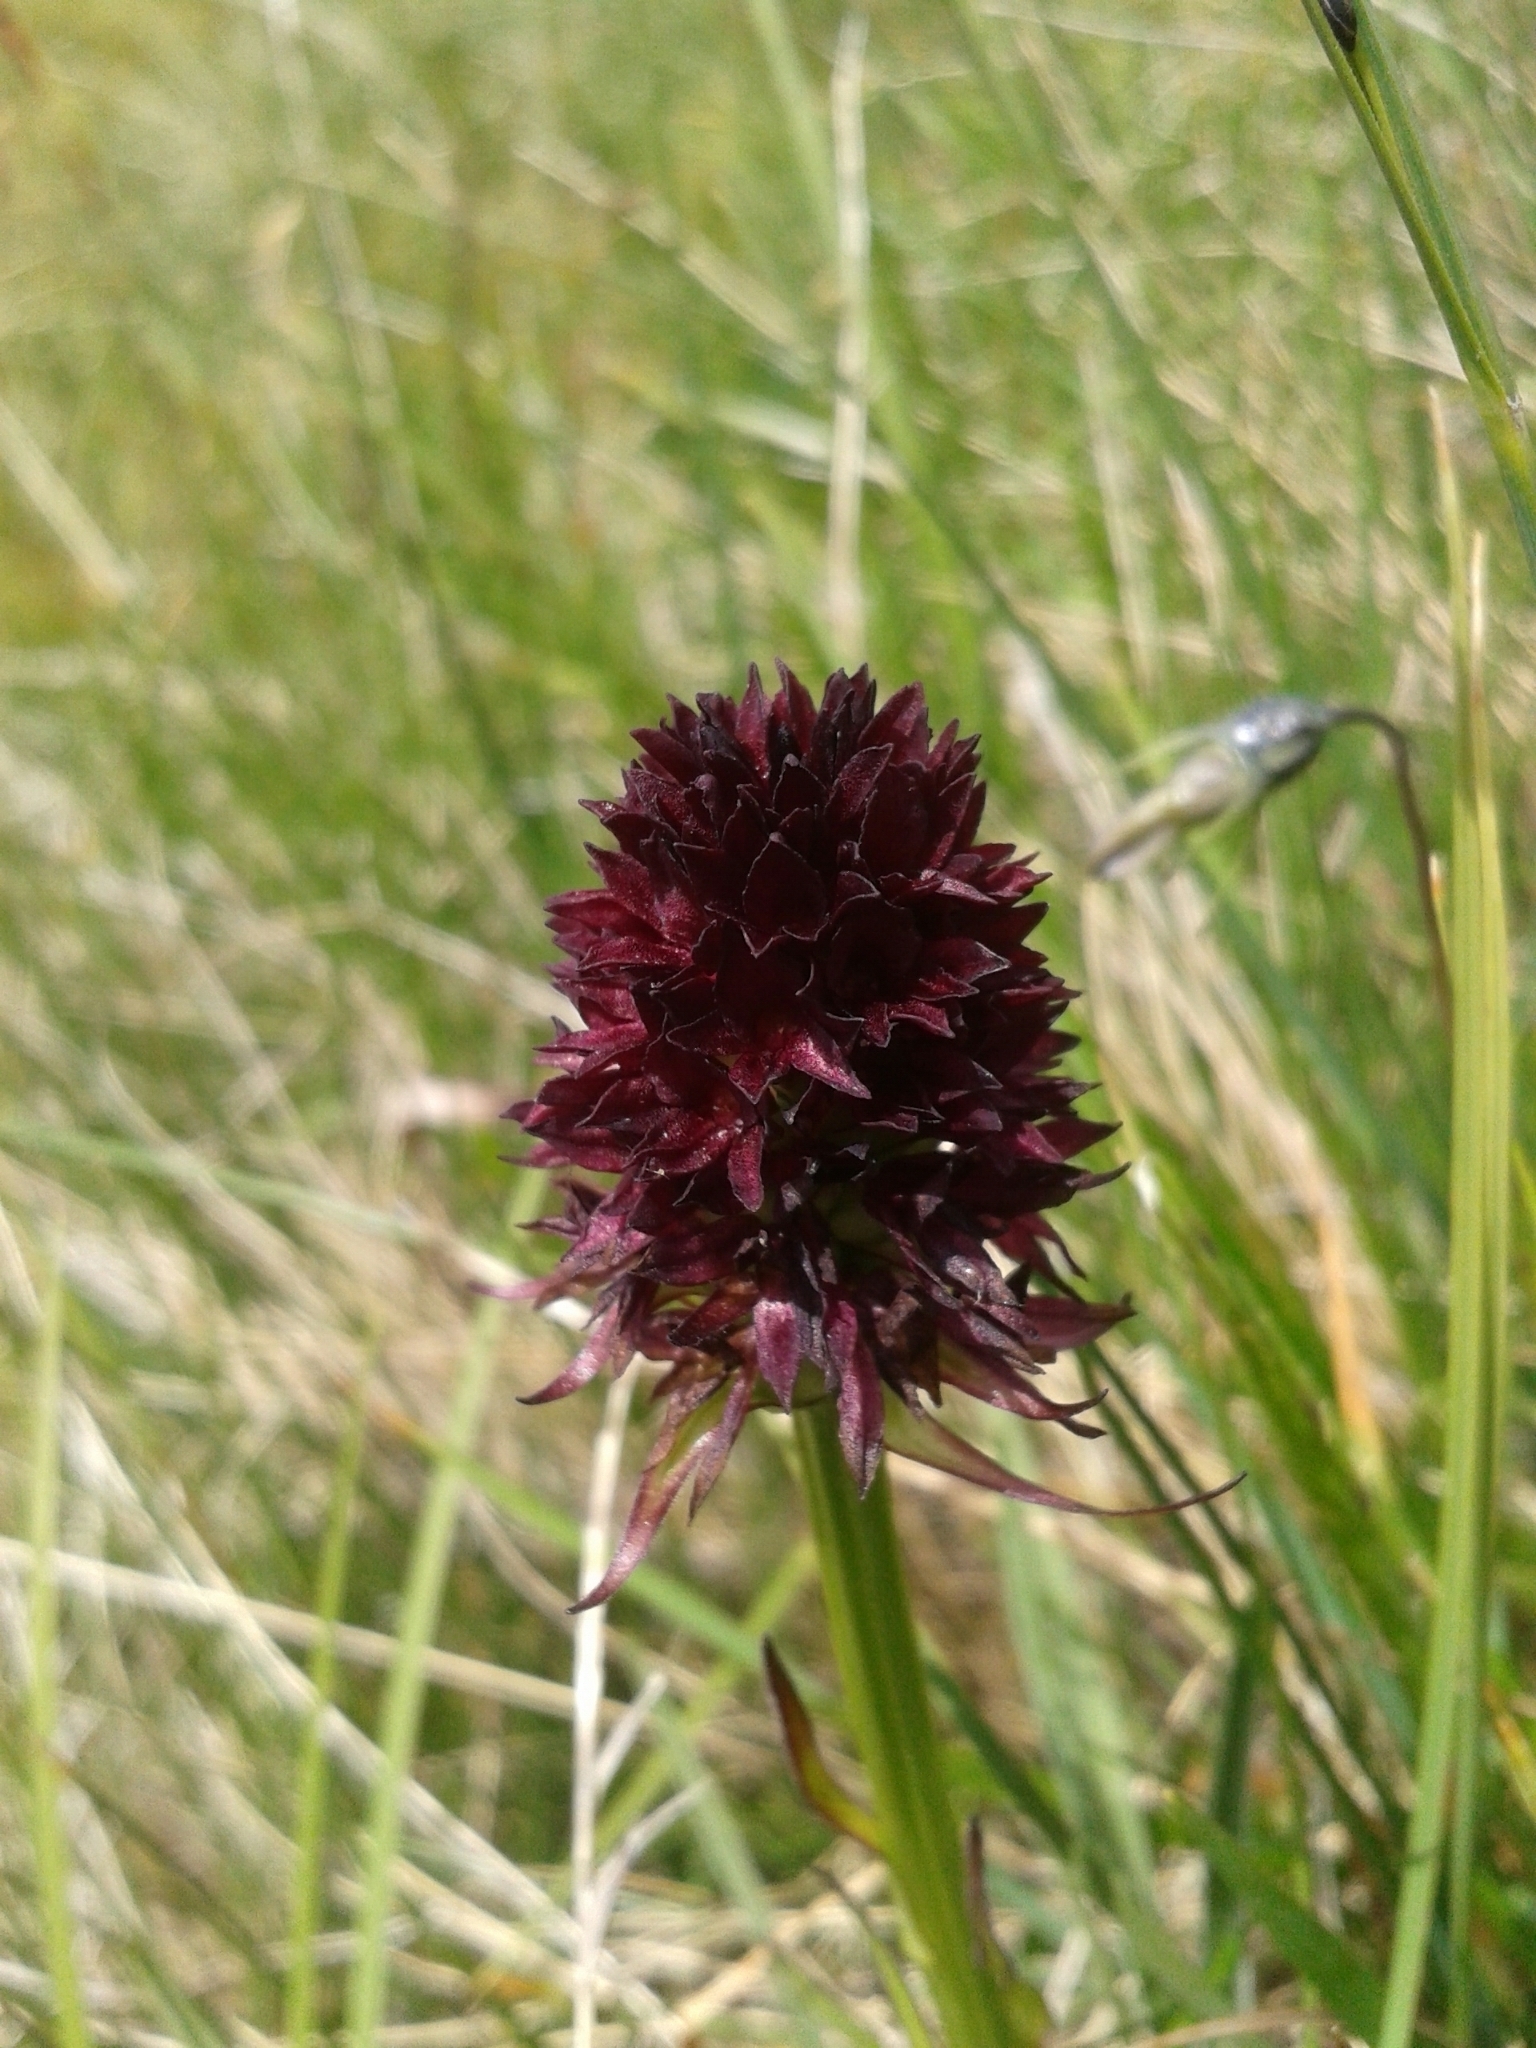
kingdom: Plantae
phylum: Tracheophyta
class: Liliopsida
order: Asparagales
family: Orchidaceae
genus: Gymnadenia
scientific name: Gymnadenia rhellicani
